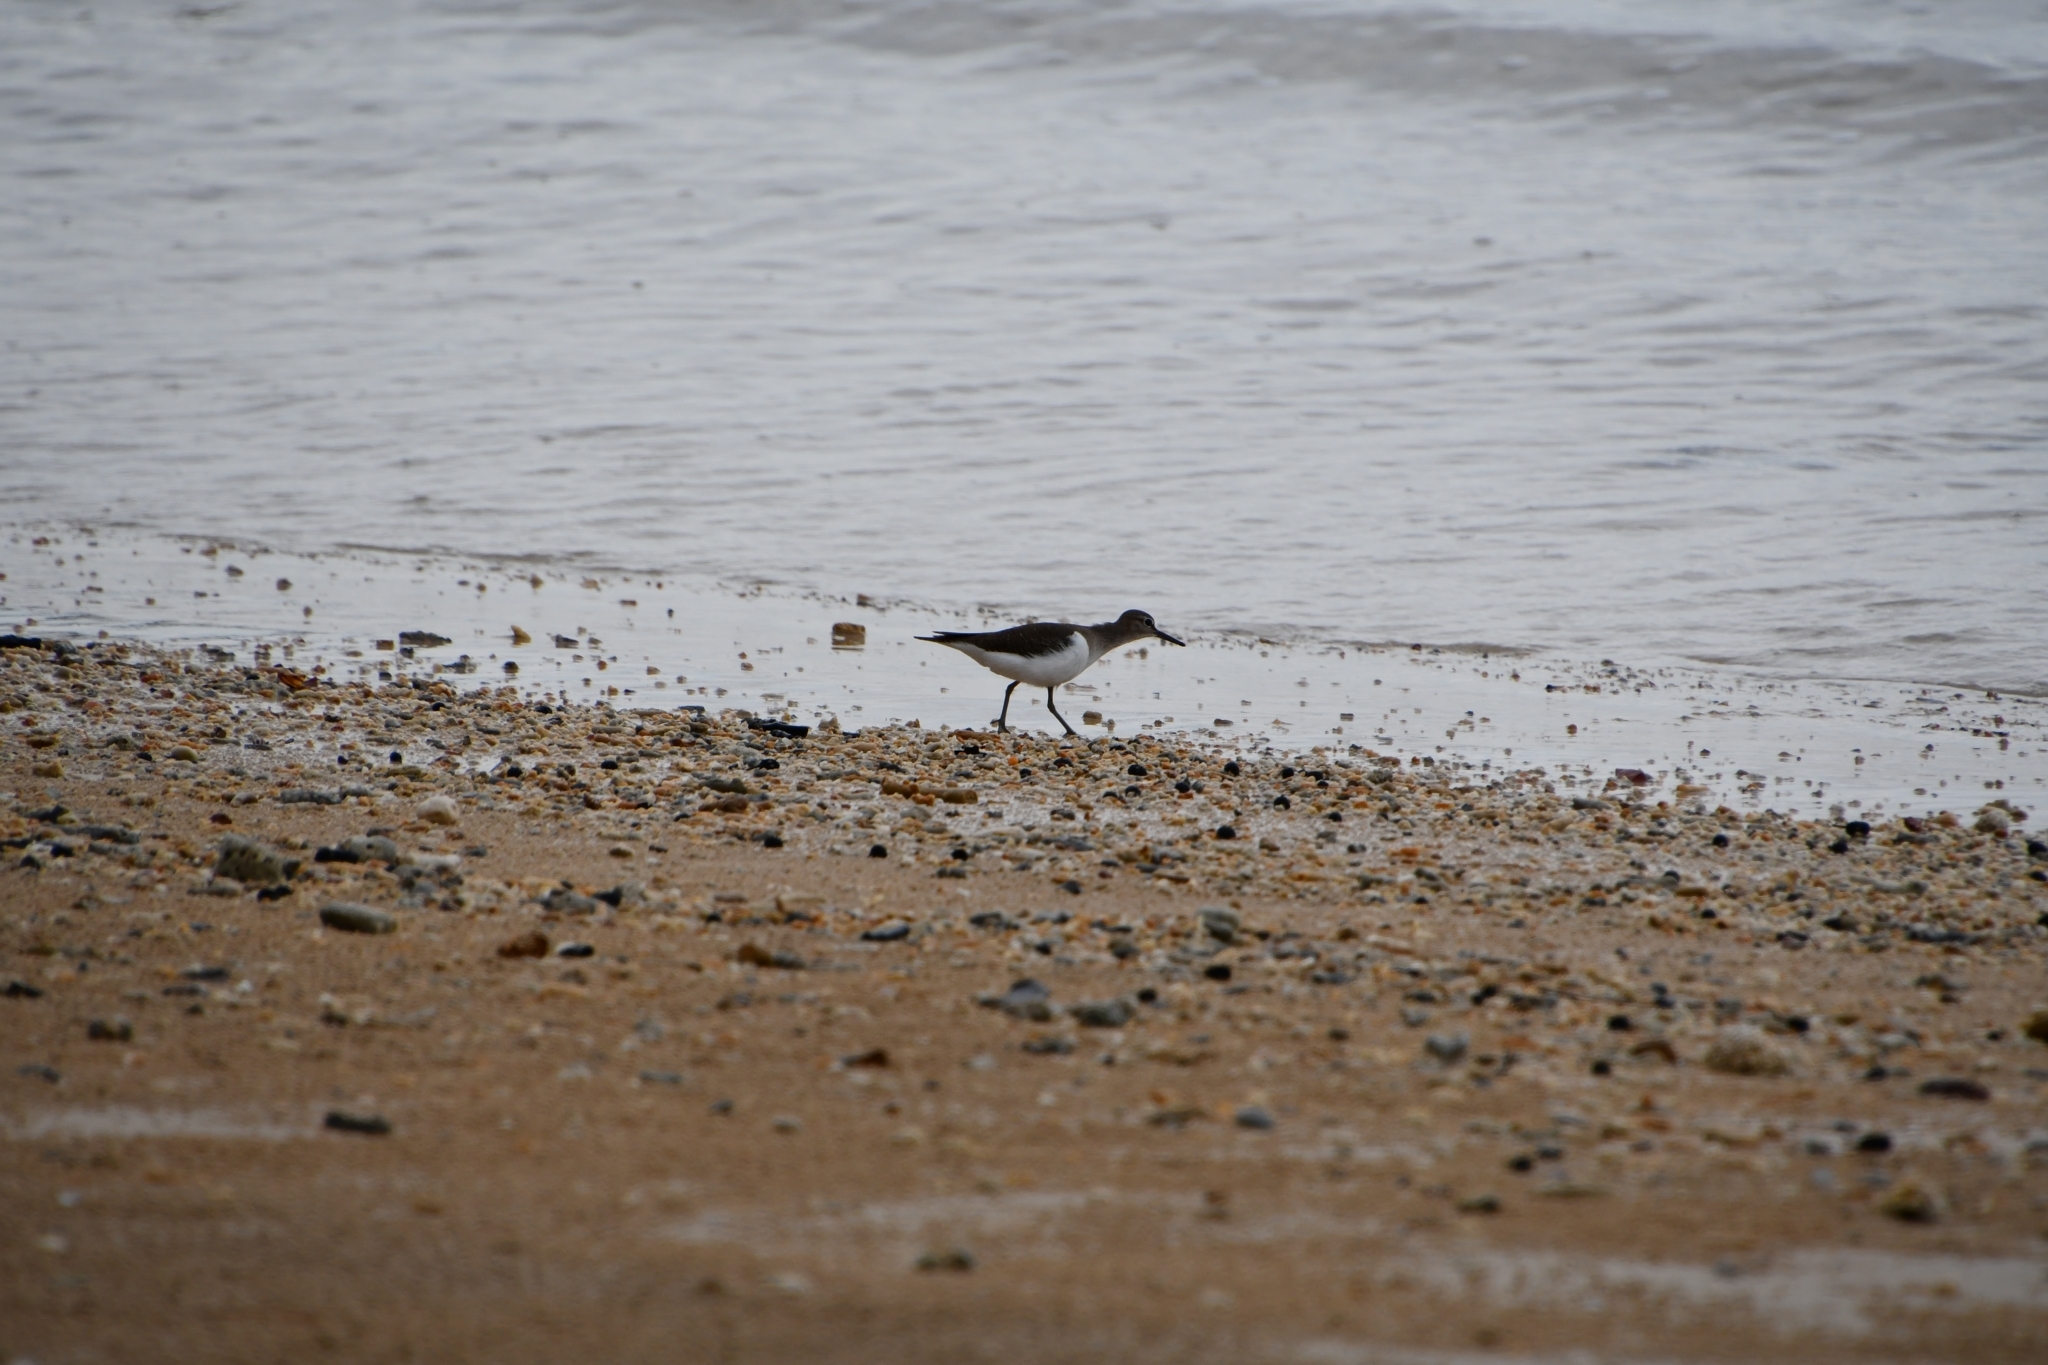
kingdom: Animalia
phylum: Chordata
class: Aves
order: Charadriiformes
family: Scolopacidae
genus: Actitis
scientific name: Actitis hypoleucos
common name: Common sandpiper
